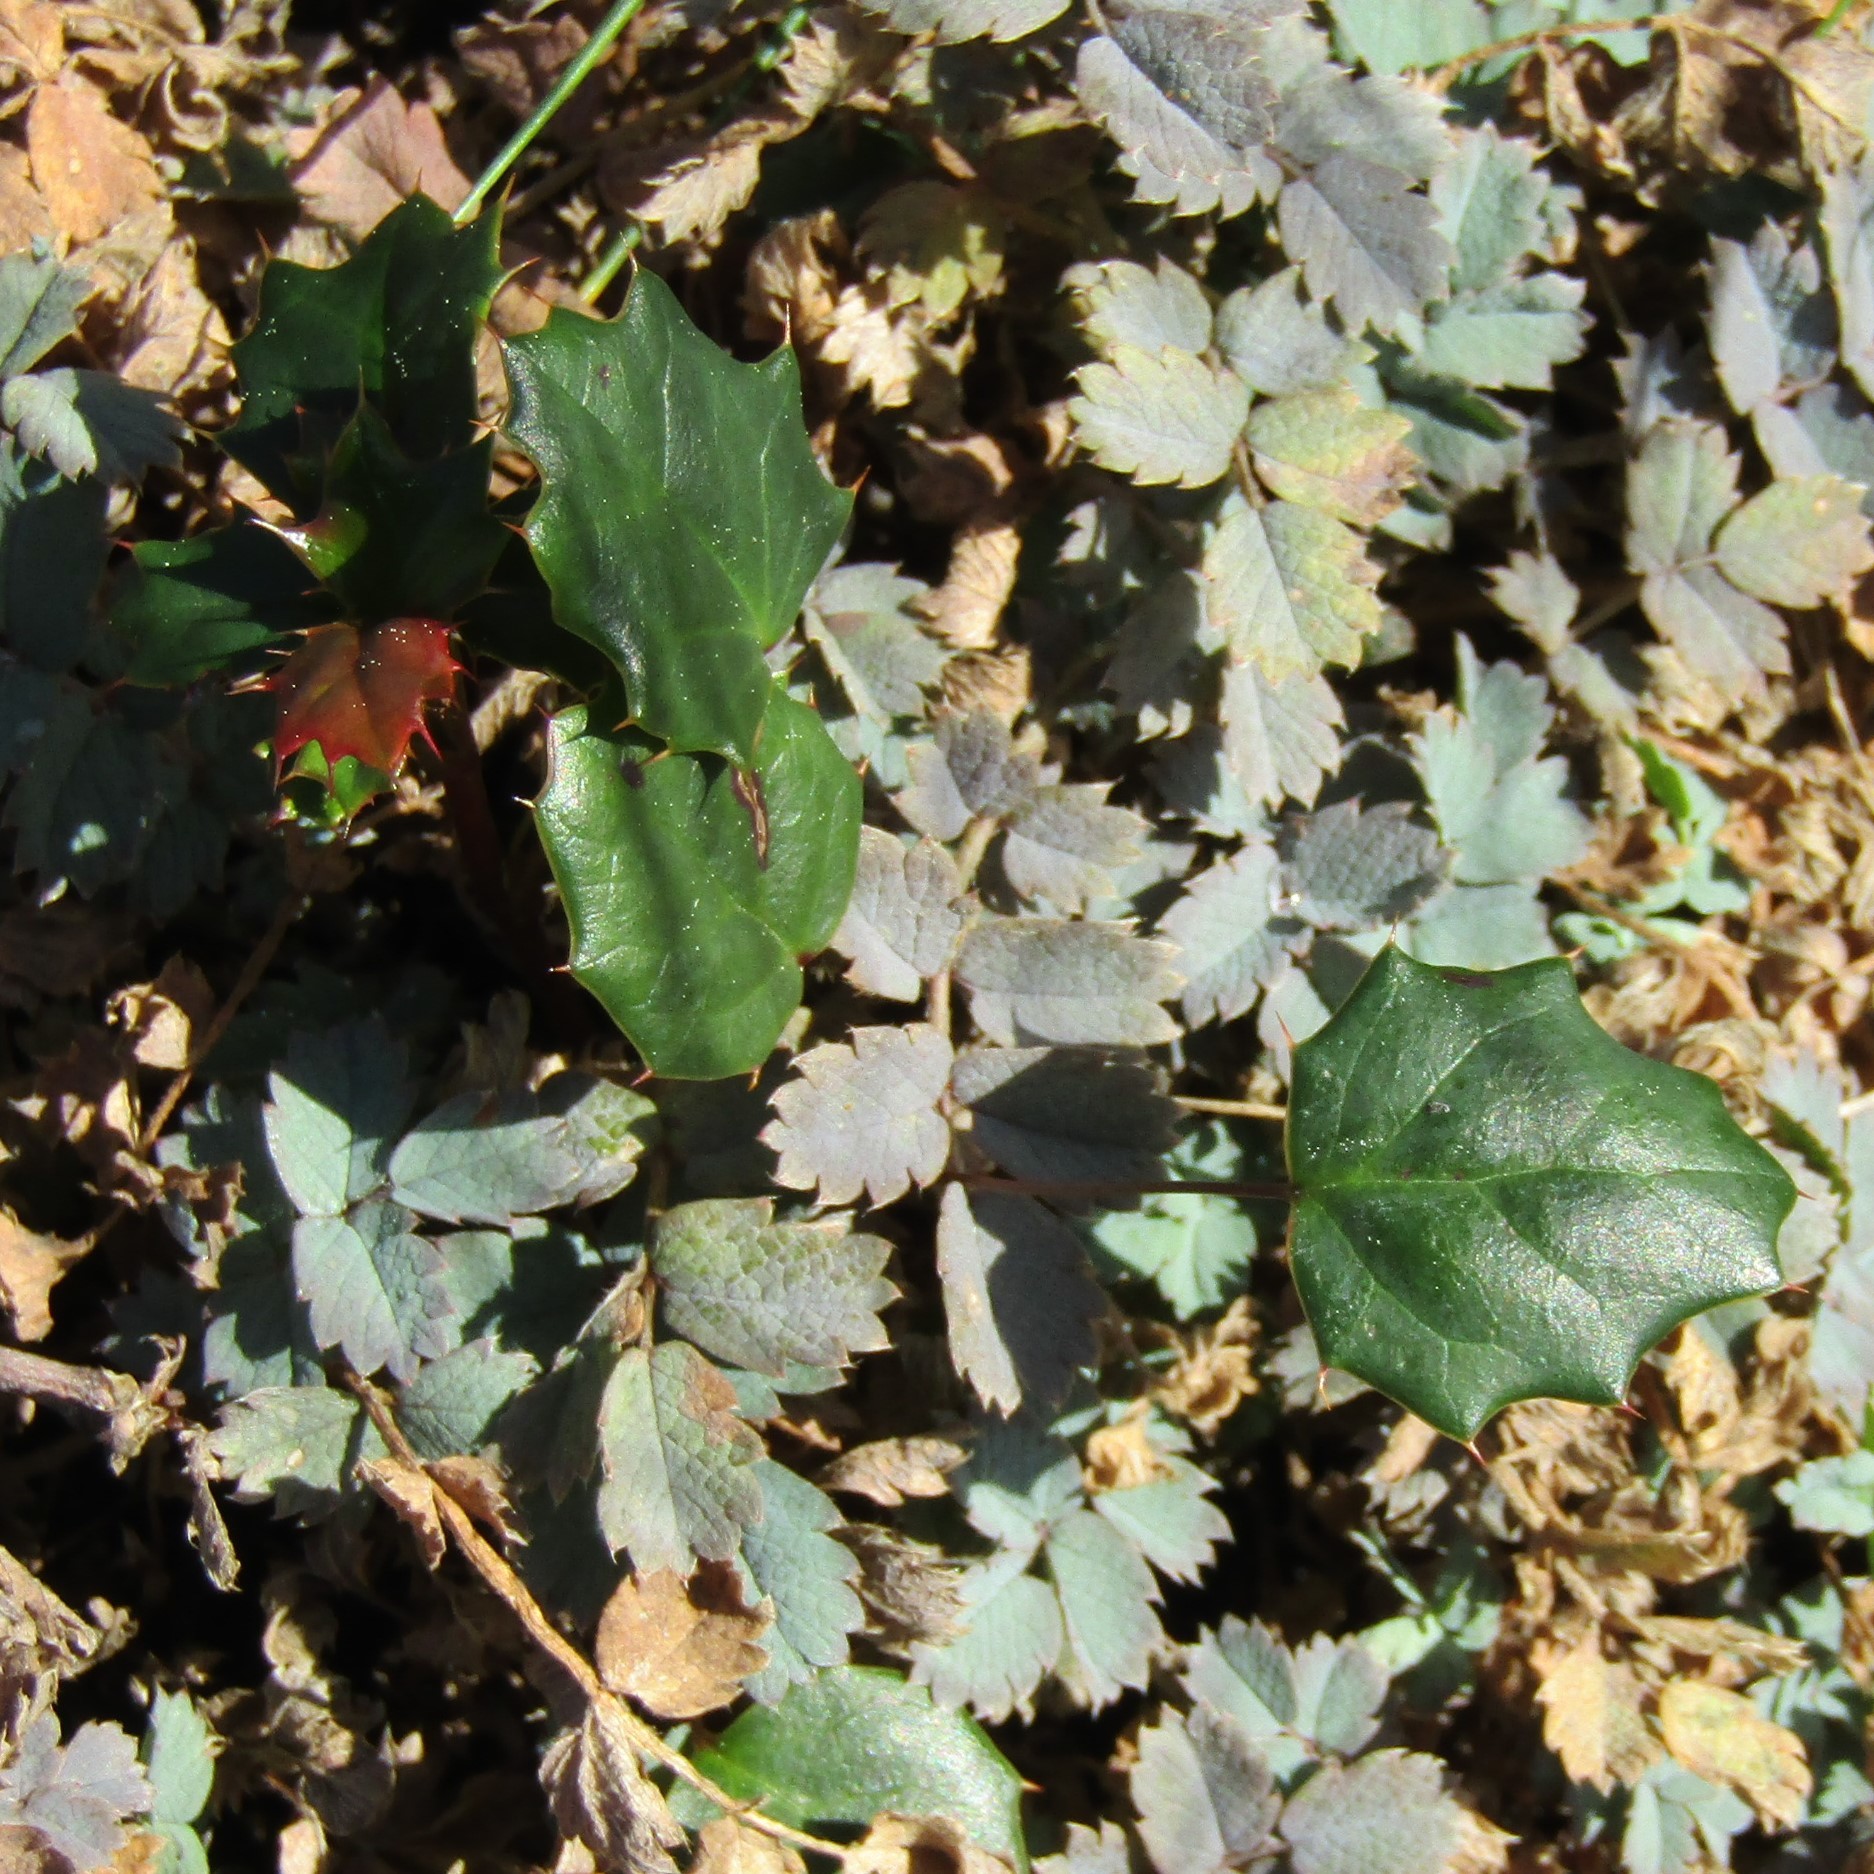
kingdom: Plantae
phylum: Tracheophyta
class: Magnoliopsida
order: Ranunculales
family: Berberidaceae
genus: Berberis
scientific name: Berberis darwinii
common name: Darwin's barberry
